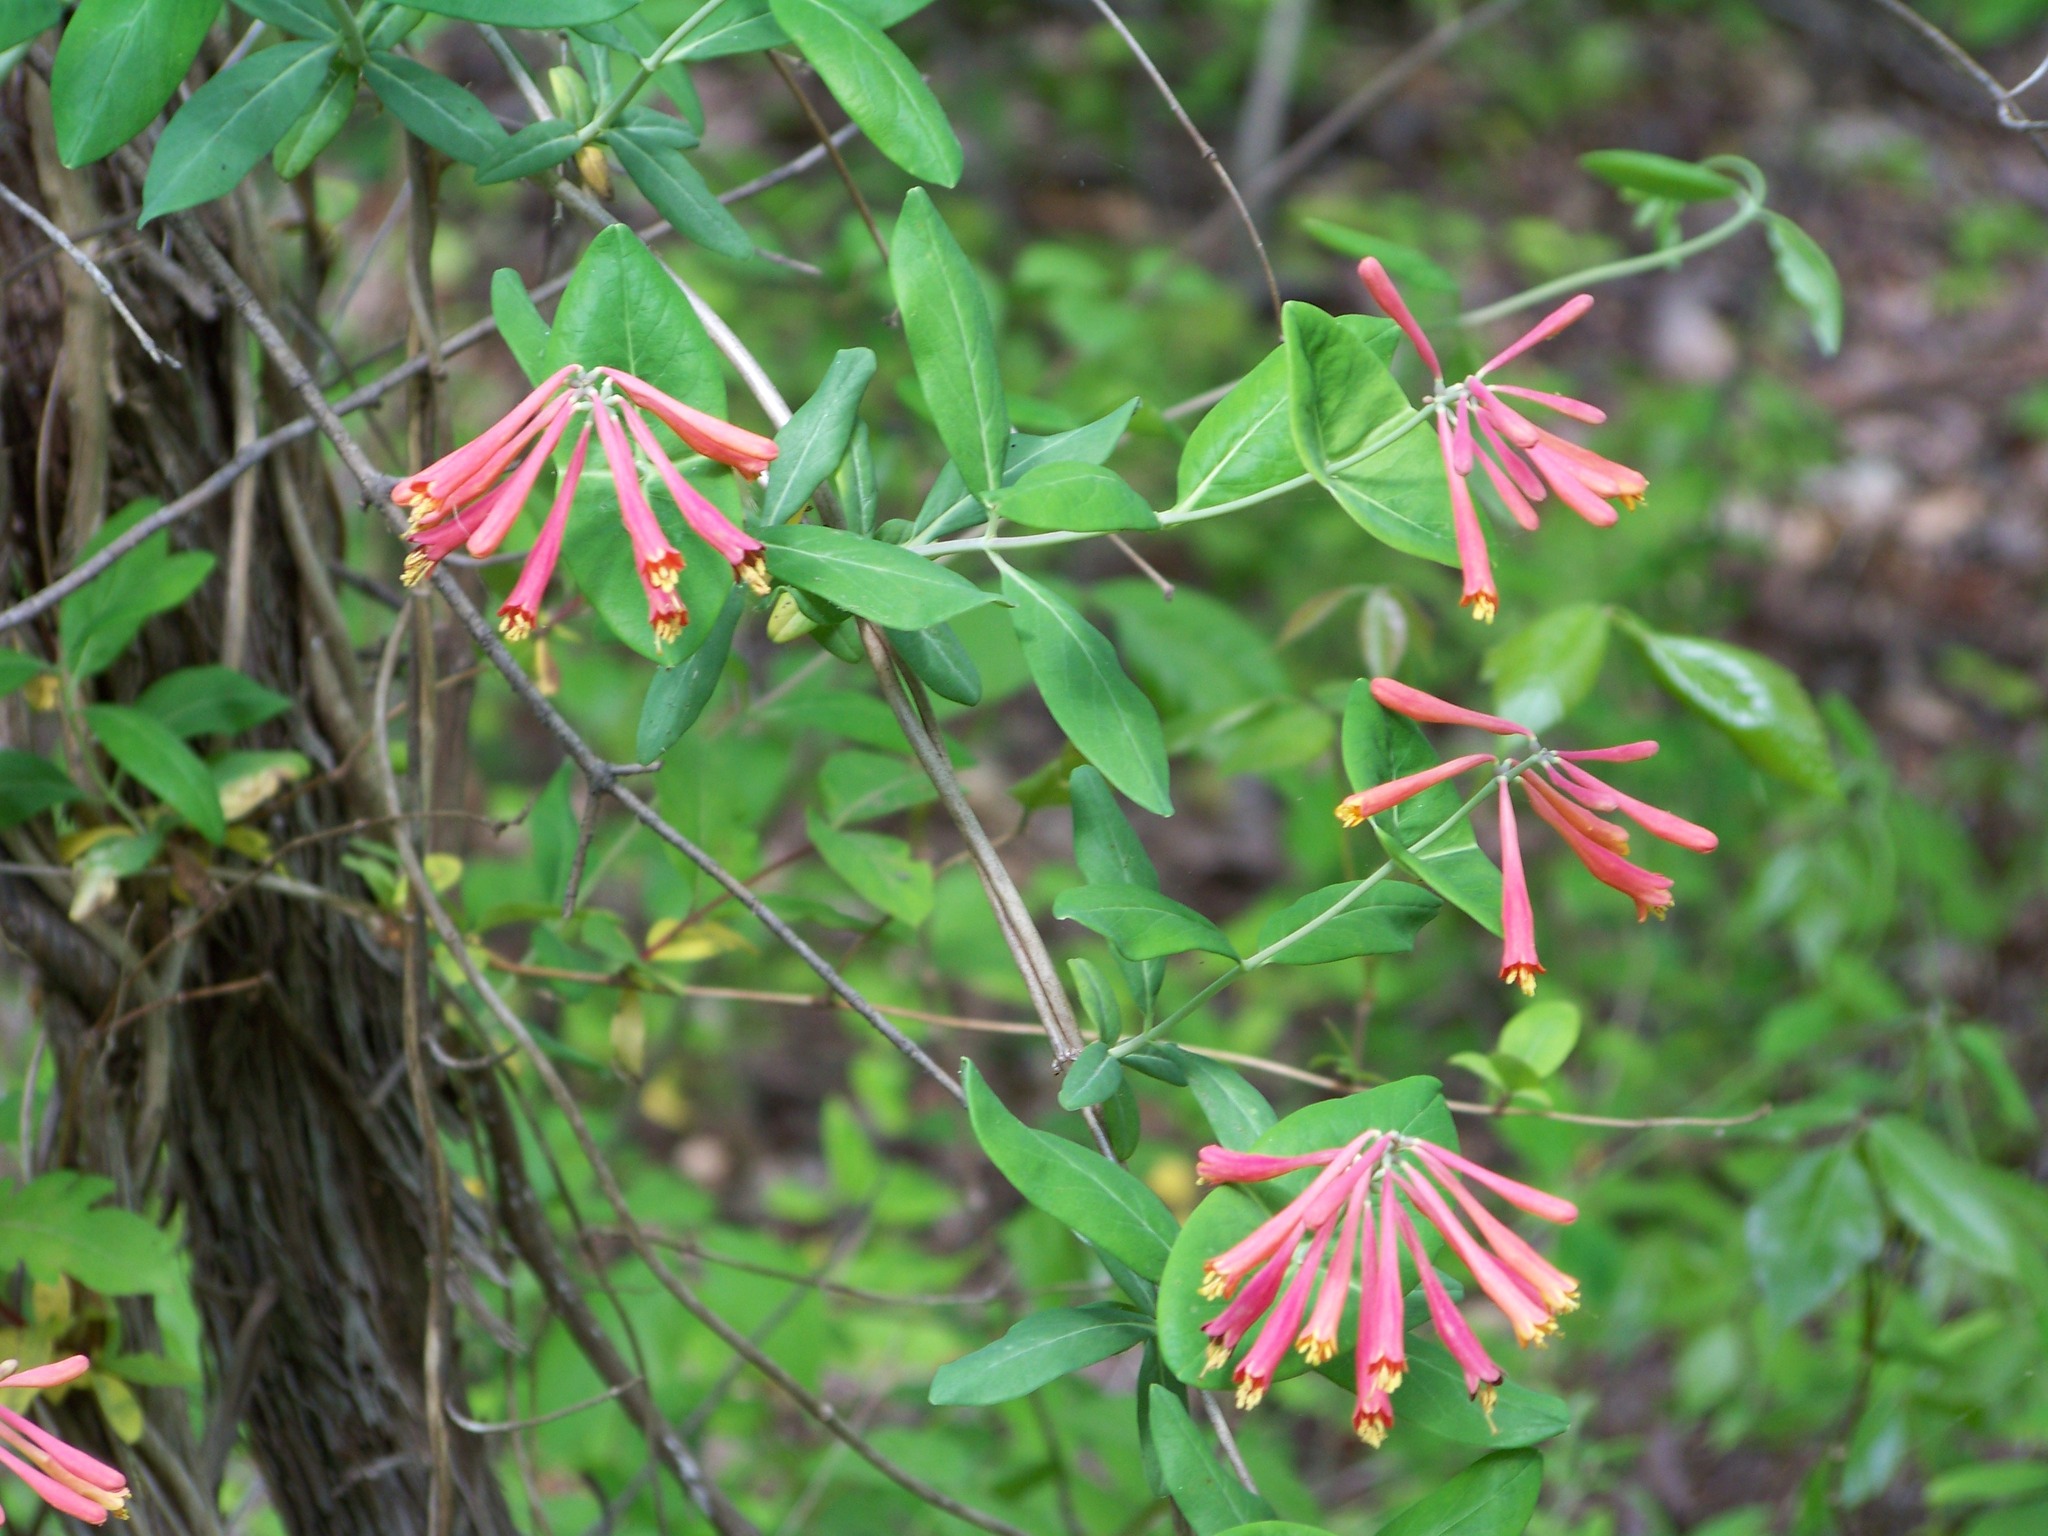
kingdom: Plantae
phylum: Tracheophyta
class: Magnoliopsida
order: Dipsacales
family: Caprifoliaceae
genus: Lonicera
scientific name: Lonicera sempervirens
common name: Coral honeysuckle
